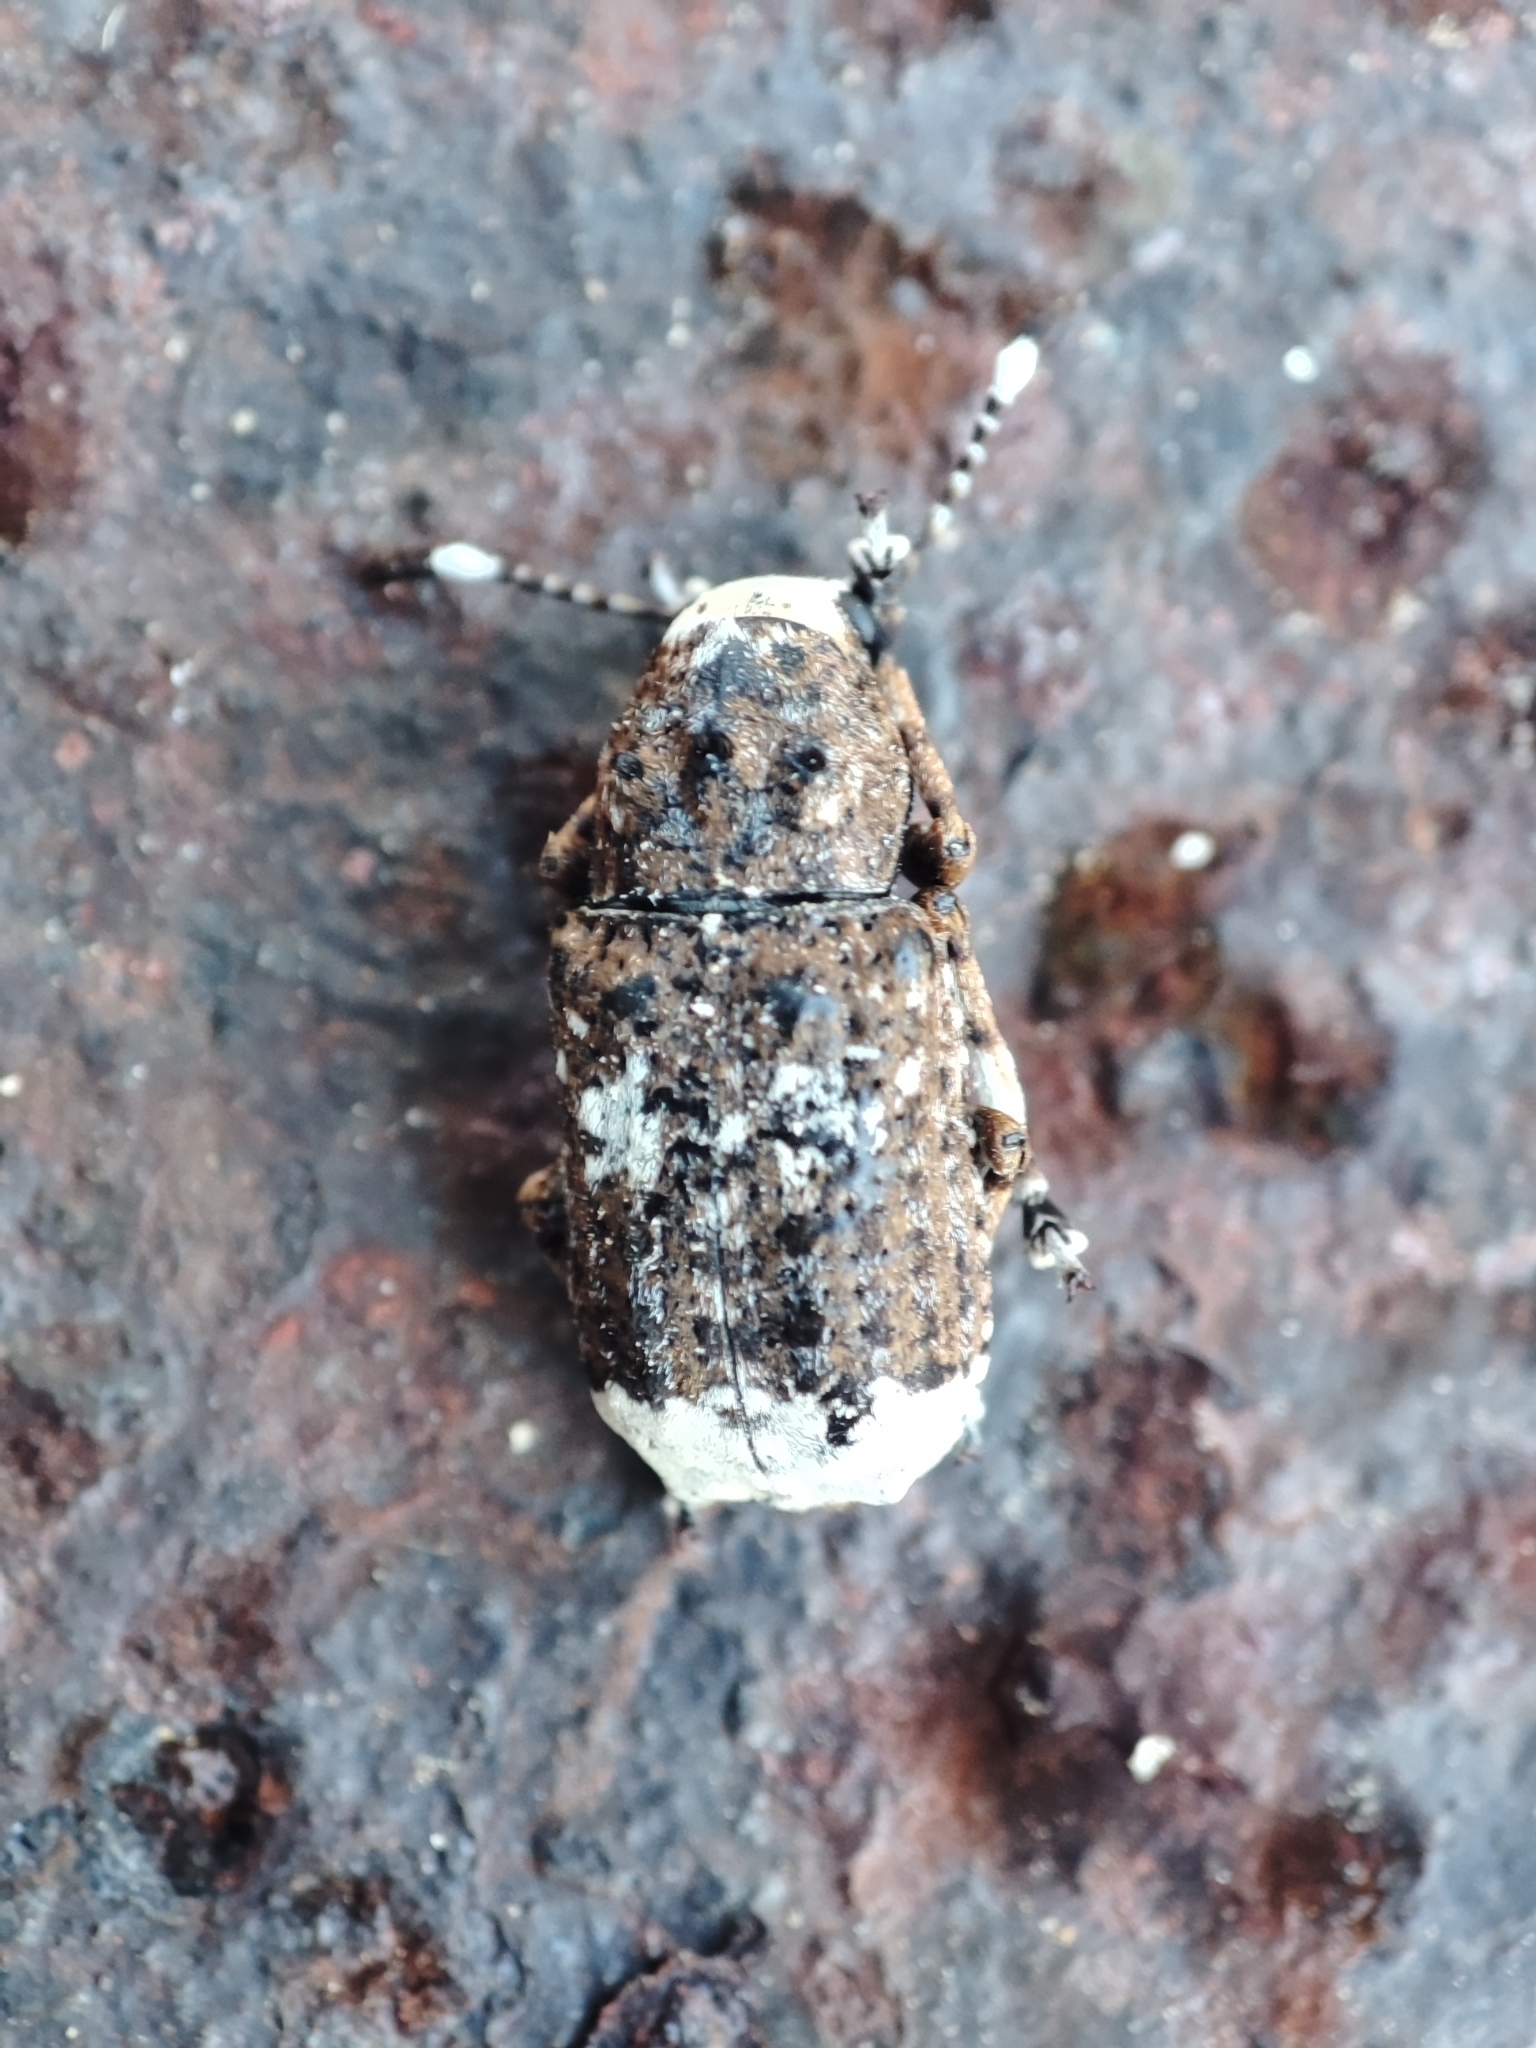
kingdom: Animalia
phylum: Arthropoda
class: Insecta
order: Coleoptera
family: Anthribidae
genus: Platystomos
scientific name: Platystomos albinus
